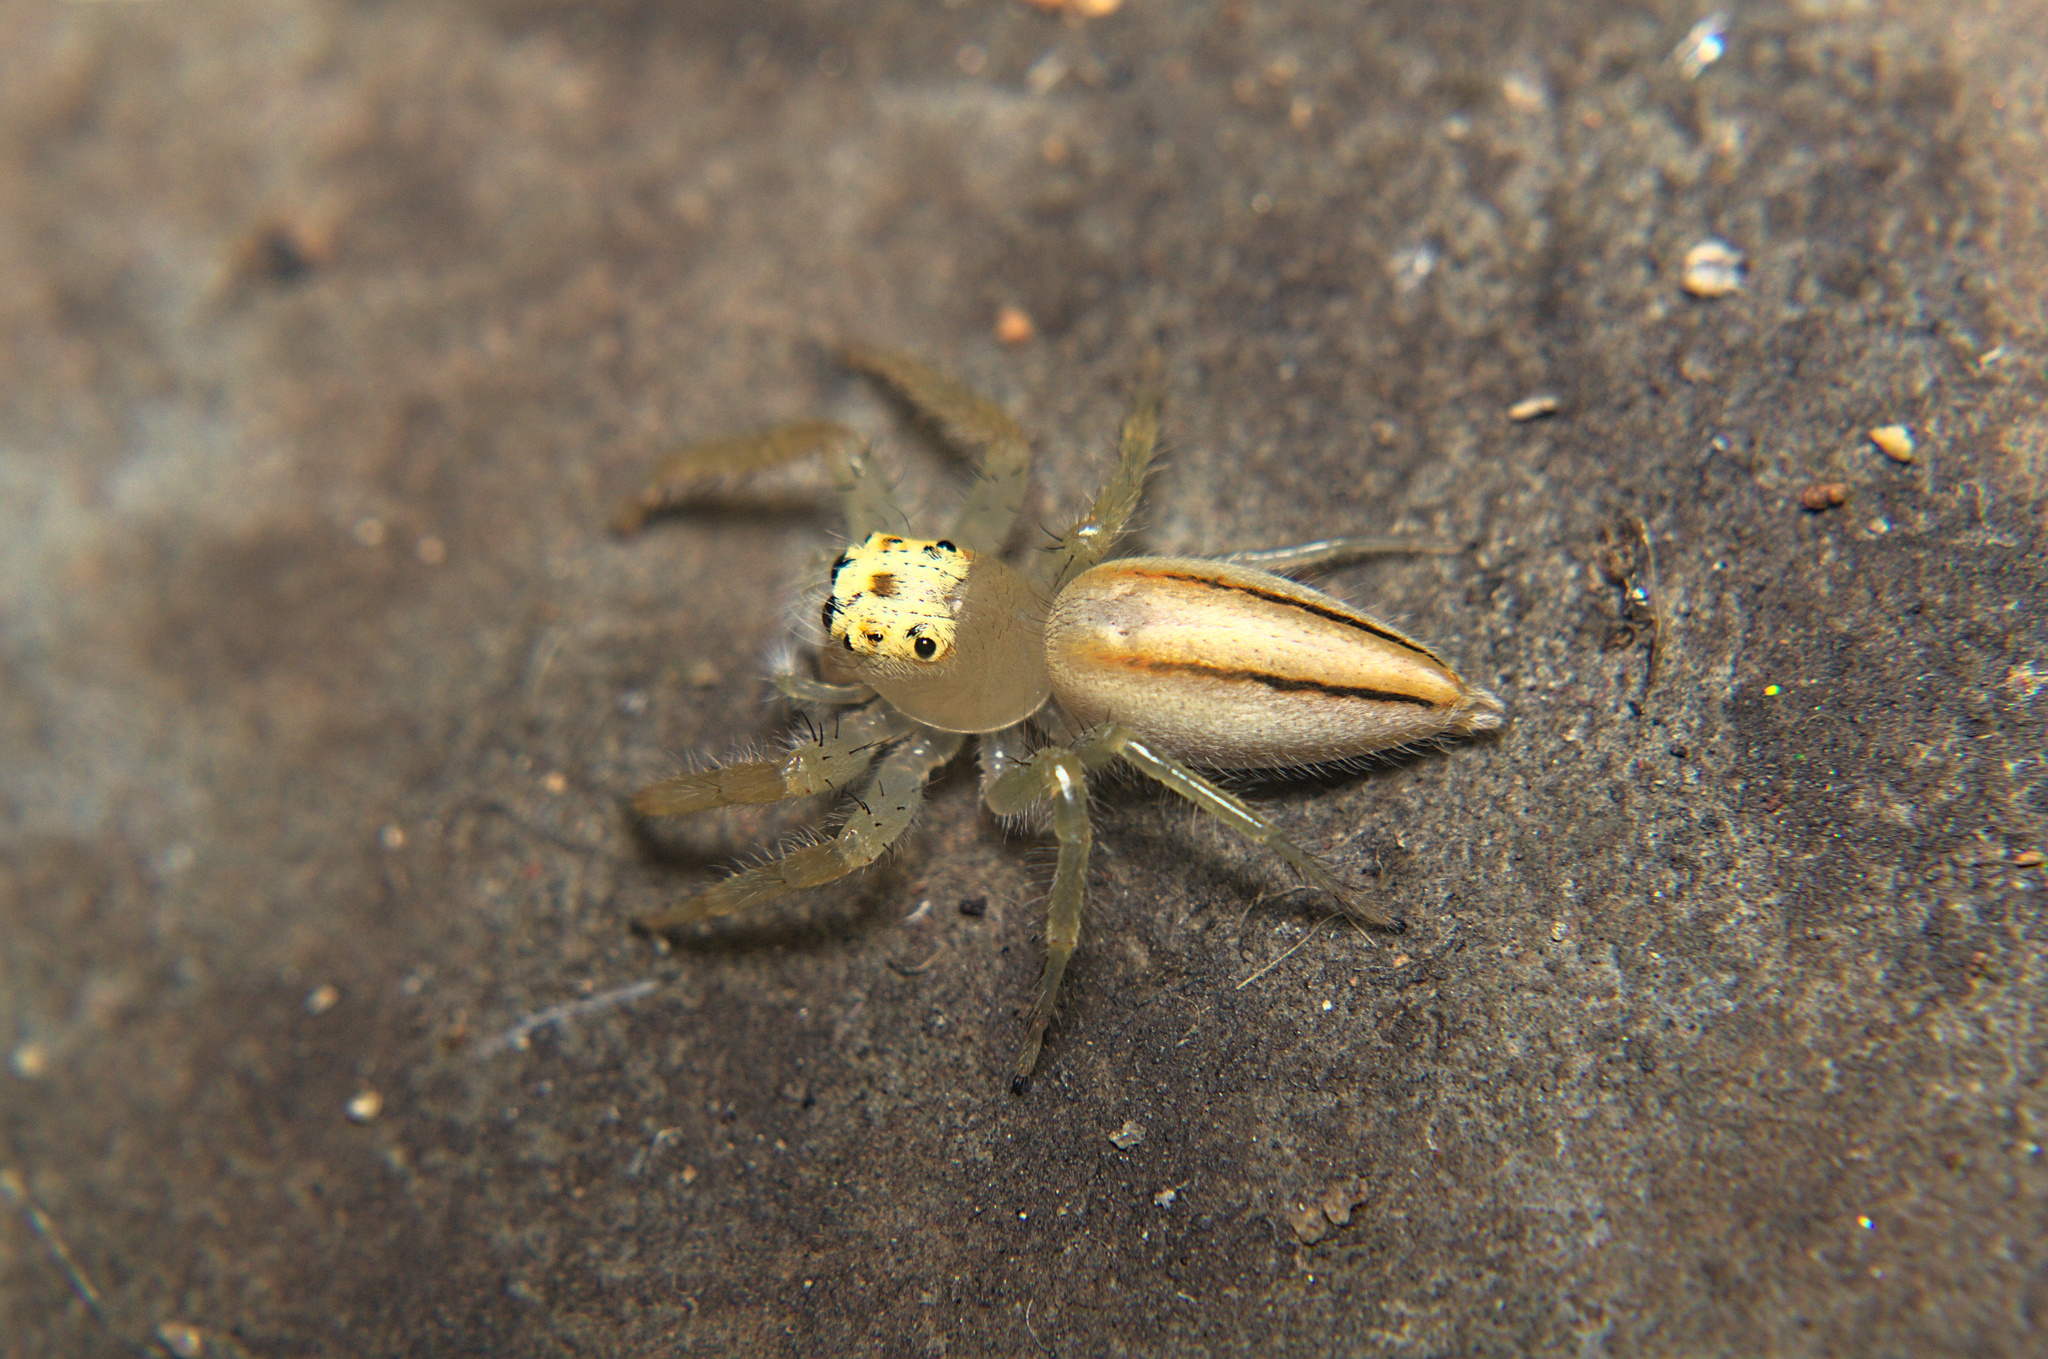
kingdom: Animalia
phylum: Arthropoda
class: Arachnida
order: Araneae
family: Salticidae
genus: Telamonia
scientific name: Telamonia dimidiata
